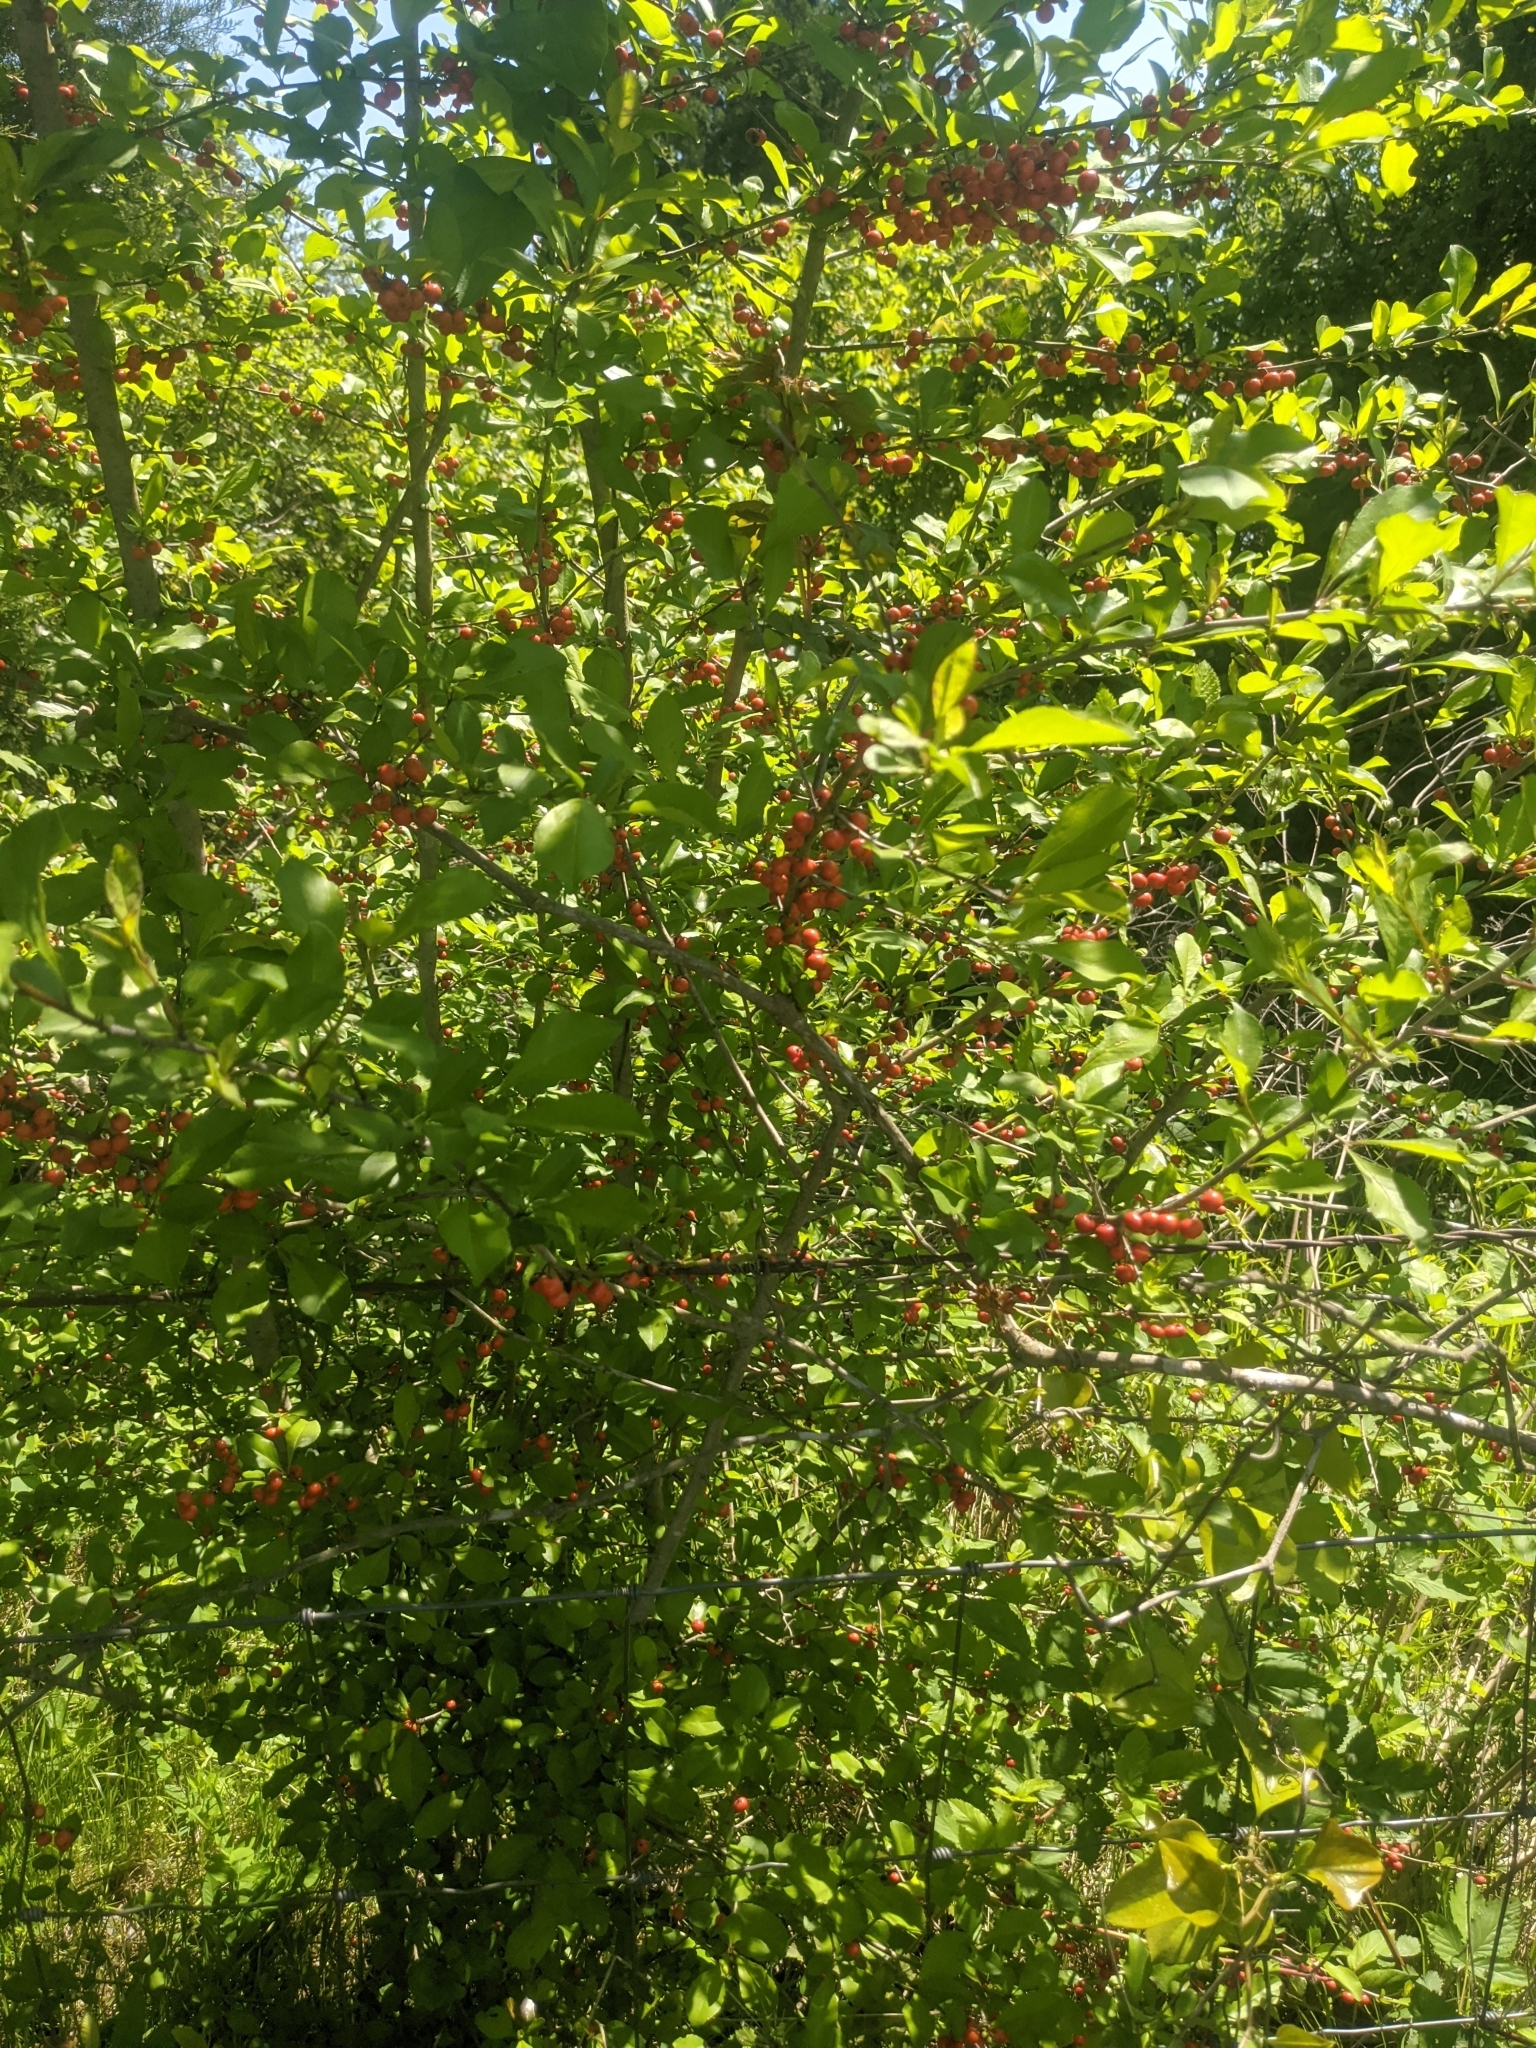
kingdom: Plantae
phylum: Tracheophyta
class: Magnoliopsida
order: Aquifoliales
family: Aquifoliaceae
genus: Ilex
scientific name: Ilex decidua
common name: Possum-haw
